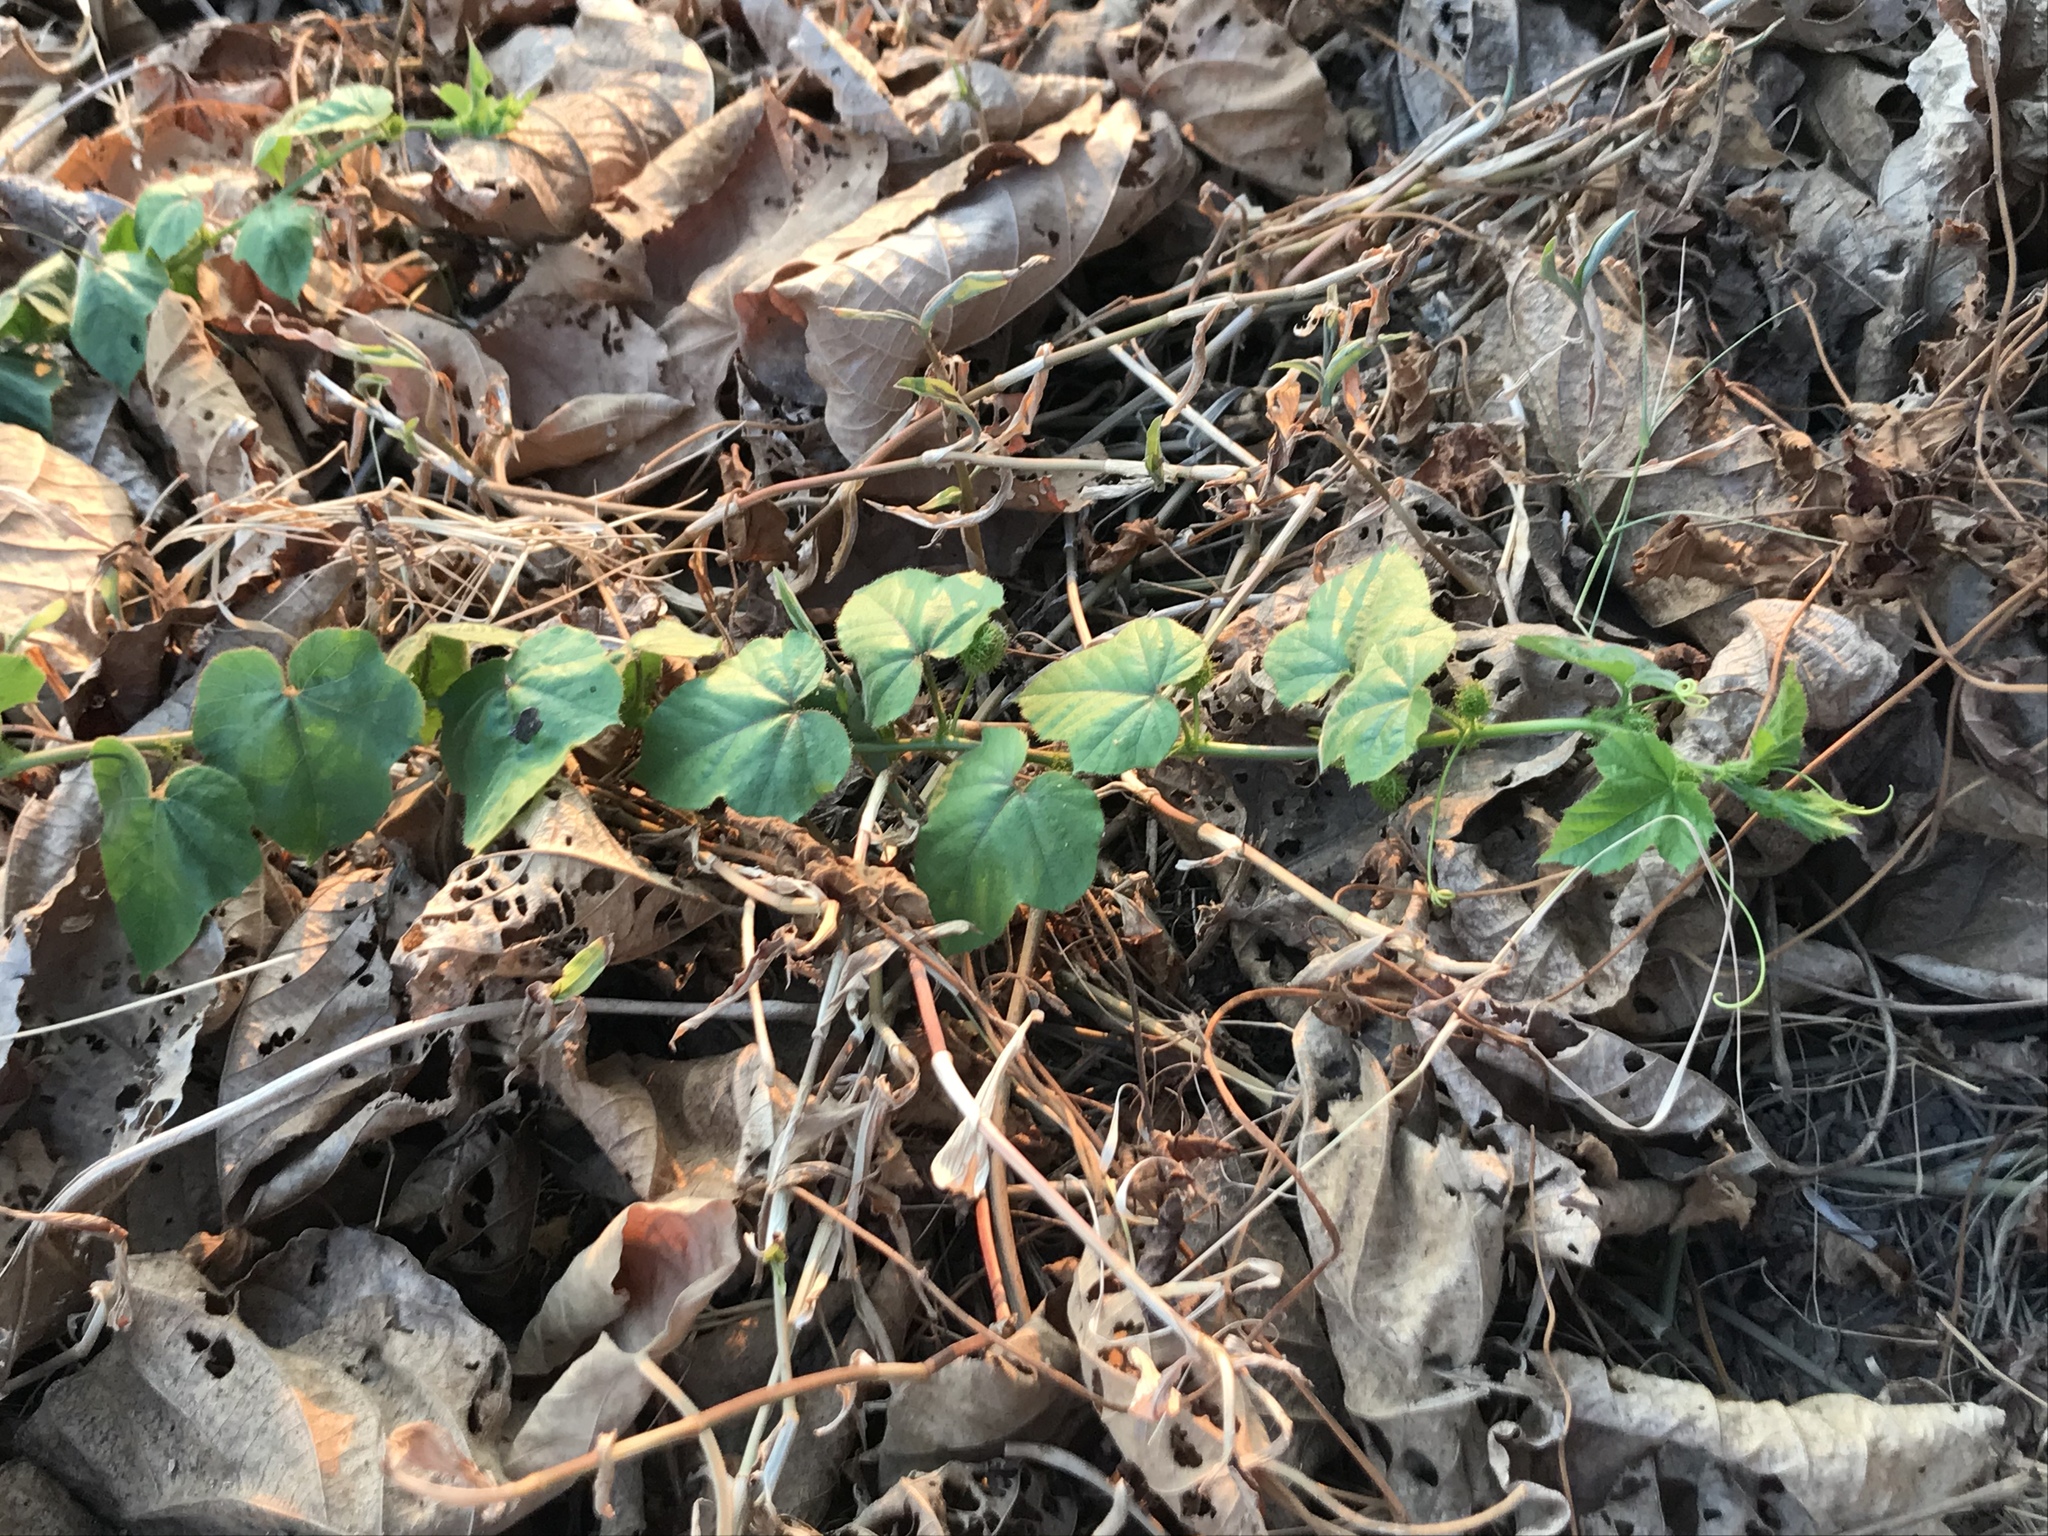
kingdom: Plantae
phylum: Tracheophyta
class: Magnoliopsida
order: Malpighiales
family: Passifloraceae
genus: Passiflora
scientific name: Passiflora foetida
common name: Fetid passionflower
